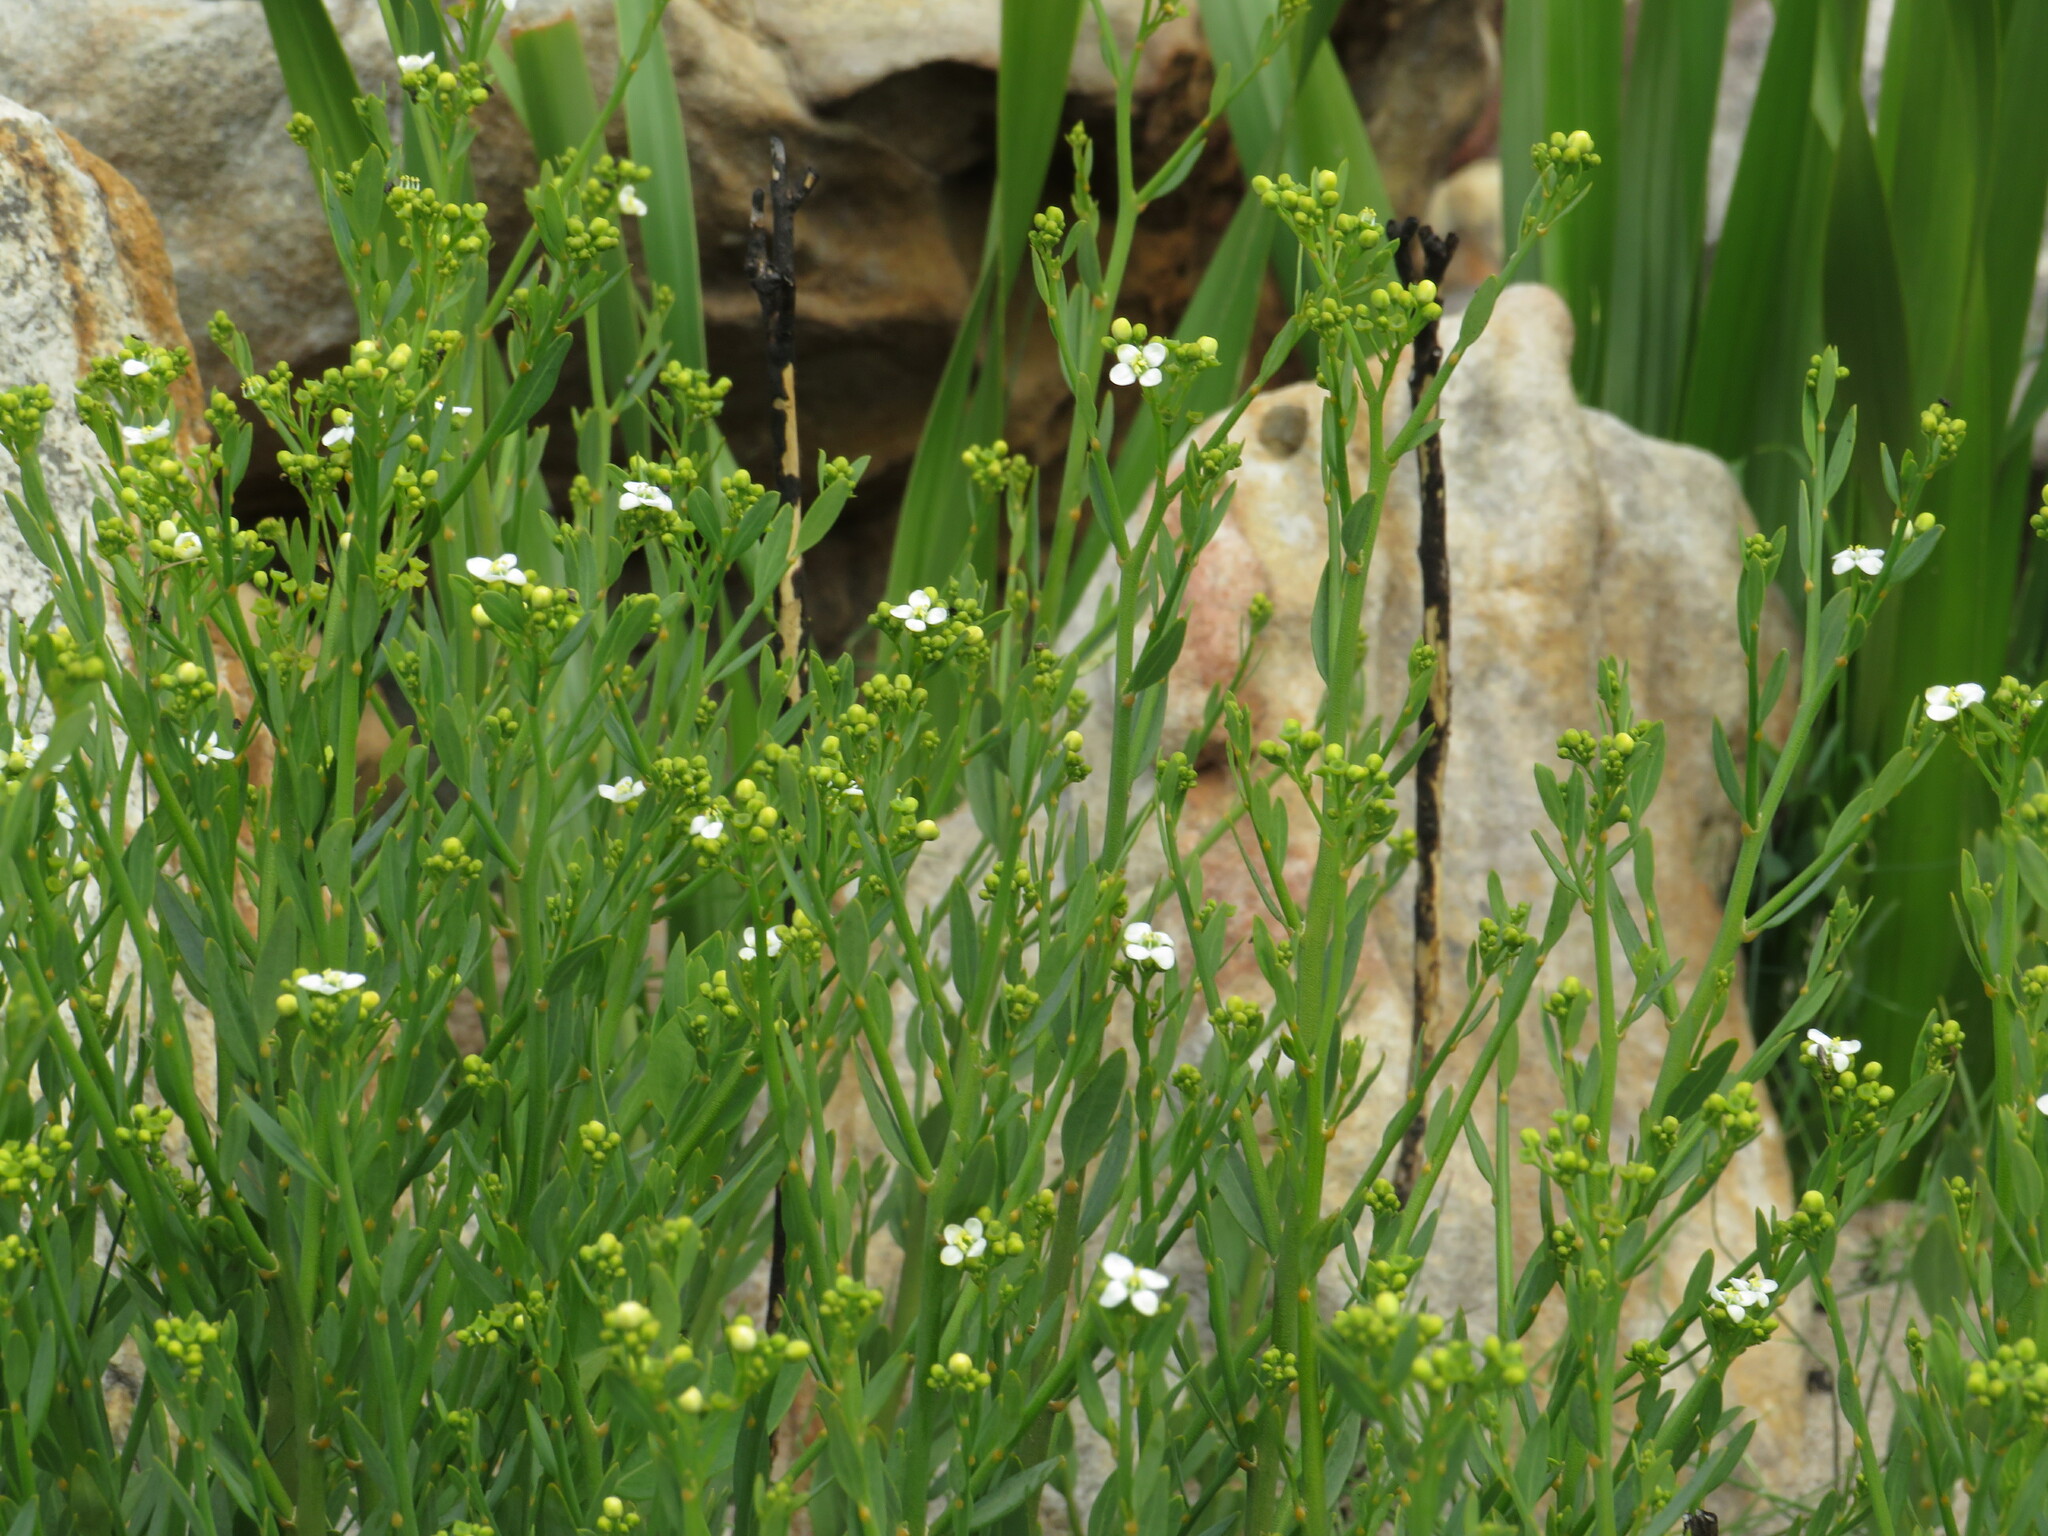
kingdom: Plantae
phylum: Tracheophyta
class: Magnoliopsida
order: Solanales
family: Montiniaceae
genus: Montinia
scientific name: Montinia caryophyllacea
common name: Wild clove-bush
